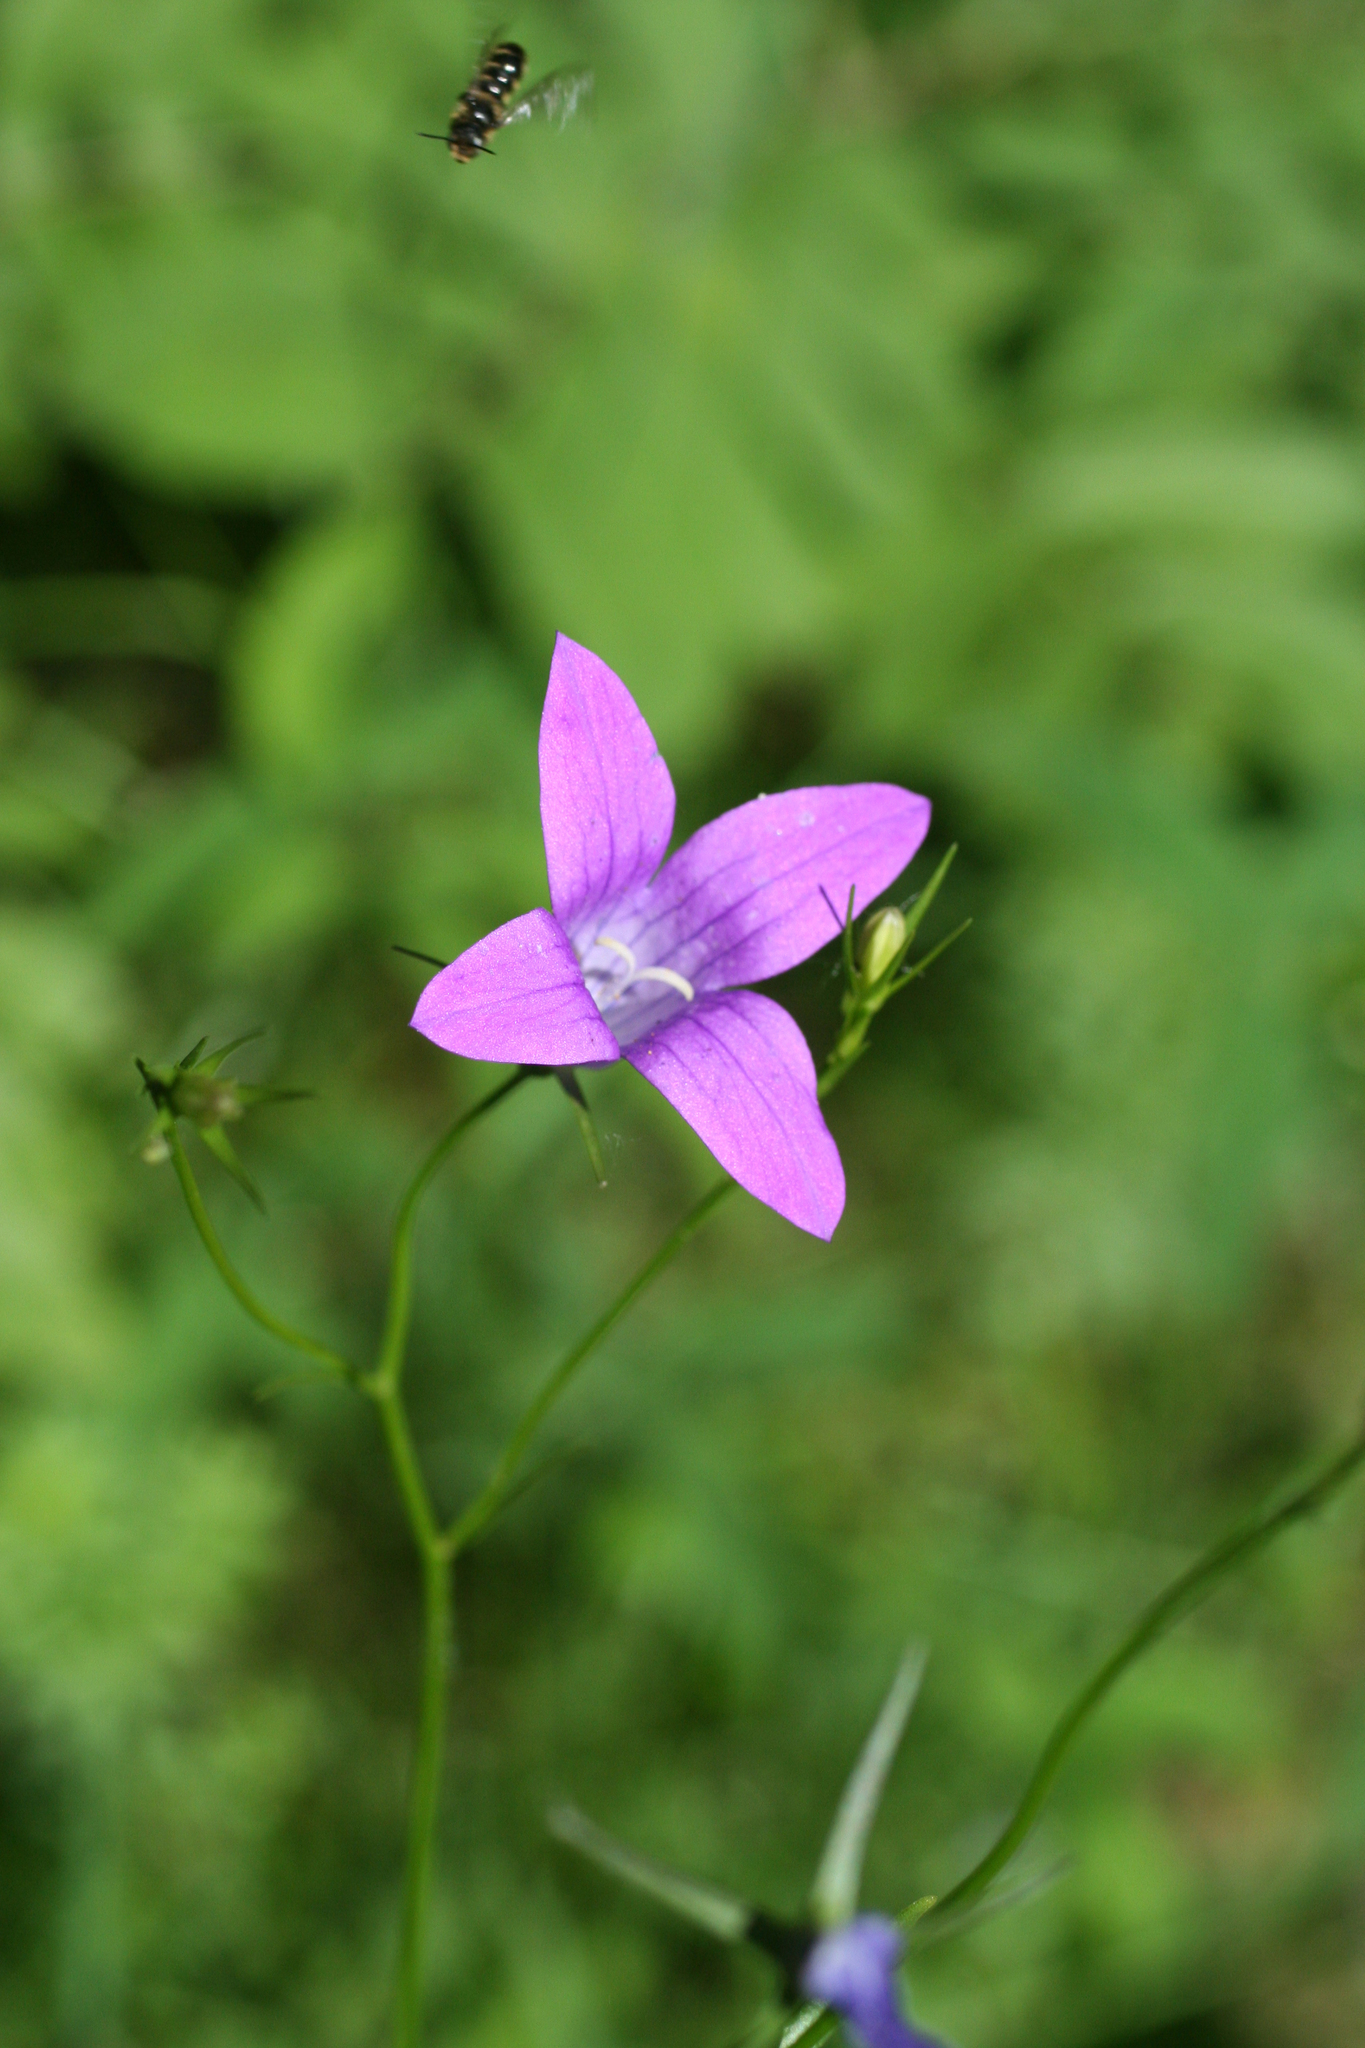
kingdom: Plantae
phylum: Tracheophyta
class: Magnoliopsida
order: Asterales
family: Campanulaceae
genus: Campanula
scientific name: Campanula patula
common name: Spreading bellflower
